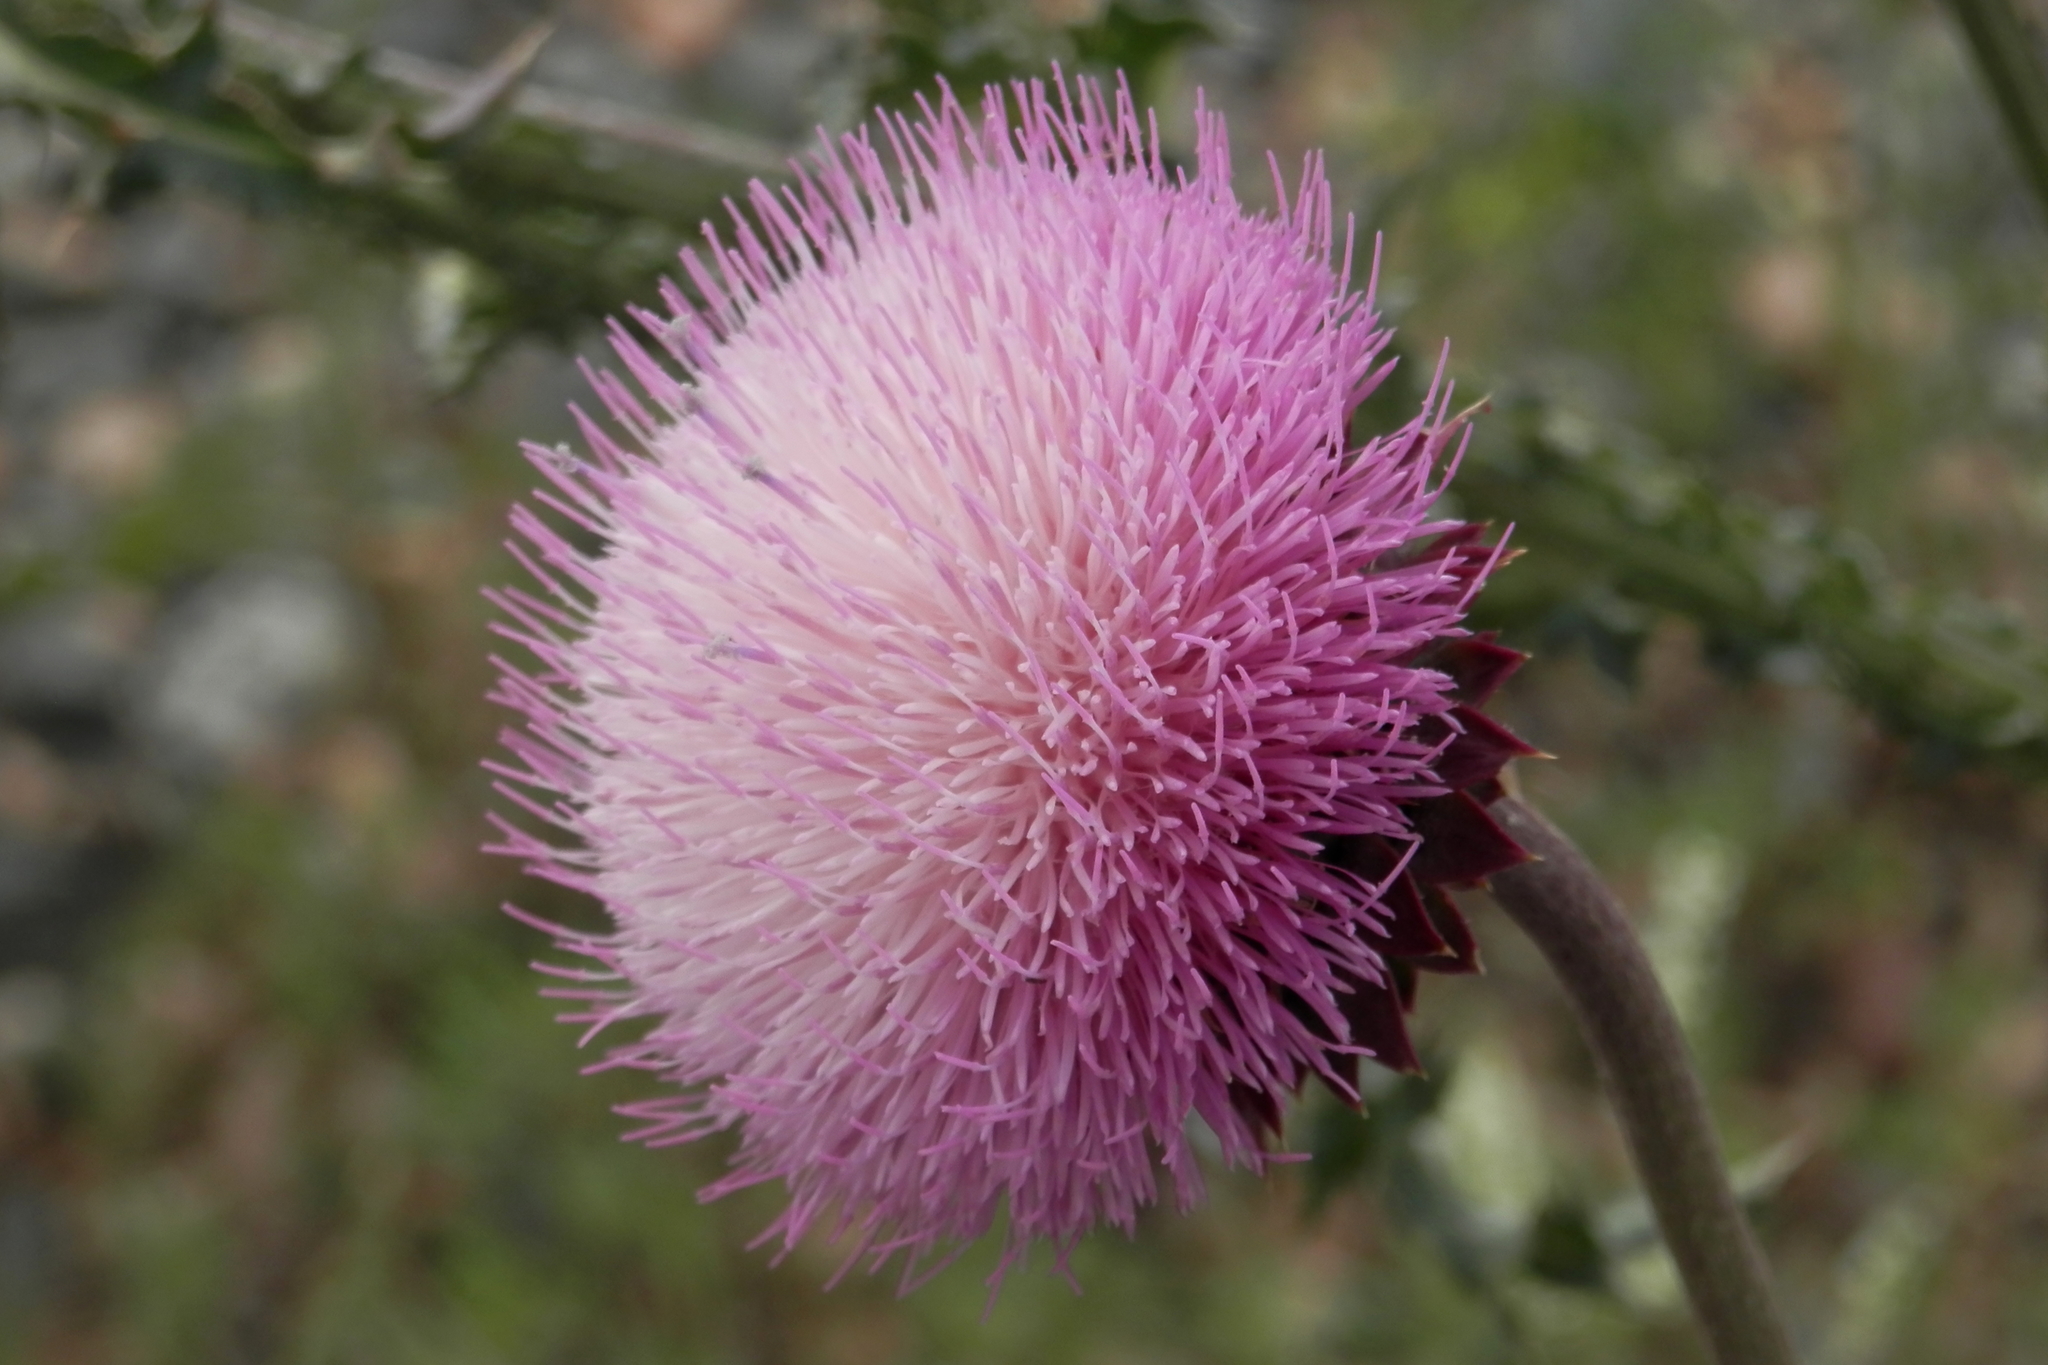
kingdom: Plantae
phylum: Tracheophyta
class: Magnoliopsida
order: Asterales
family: Asteraceae
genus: Carduus
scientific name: Carduus nutans
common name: Musk thistle
